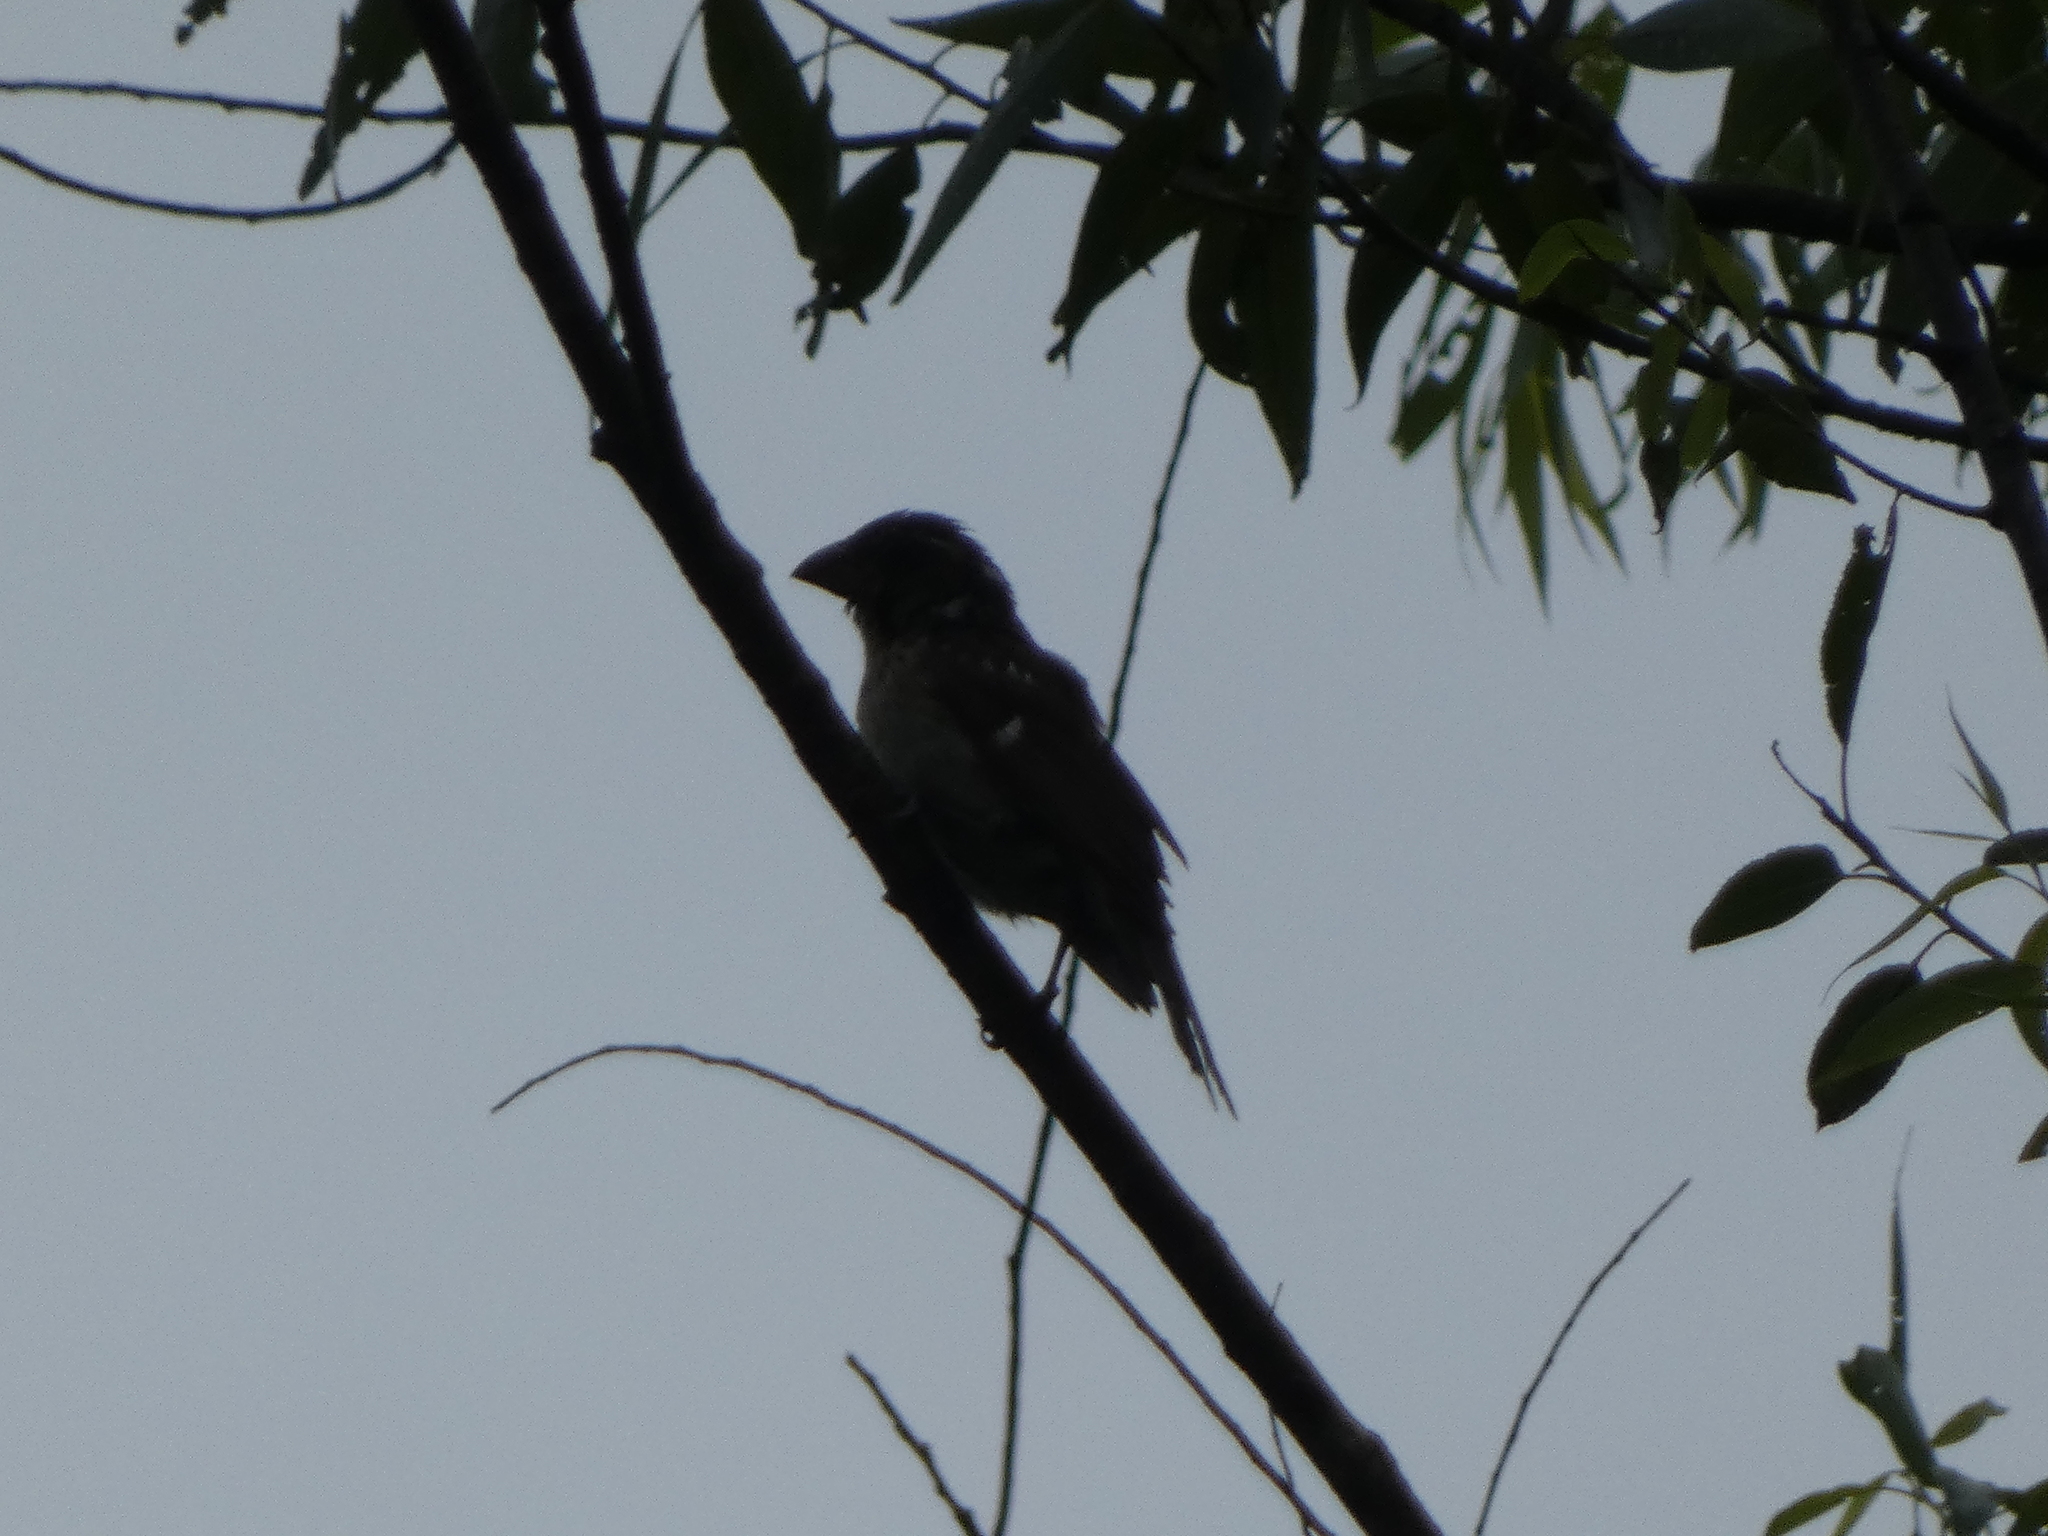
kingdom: Animalia
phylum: Chordata
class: Aves
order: Passeriformes
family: Cardinalidae
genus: Pheucticus
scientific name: Pheucticus ludovicianus
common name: Rose-breasted grosbeak
